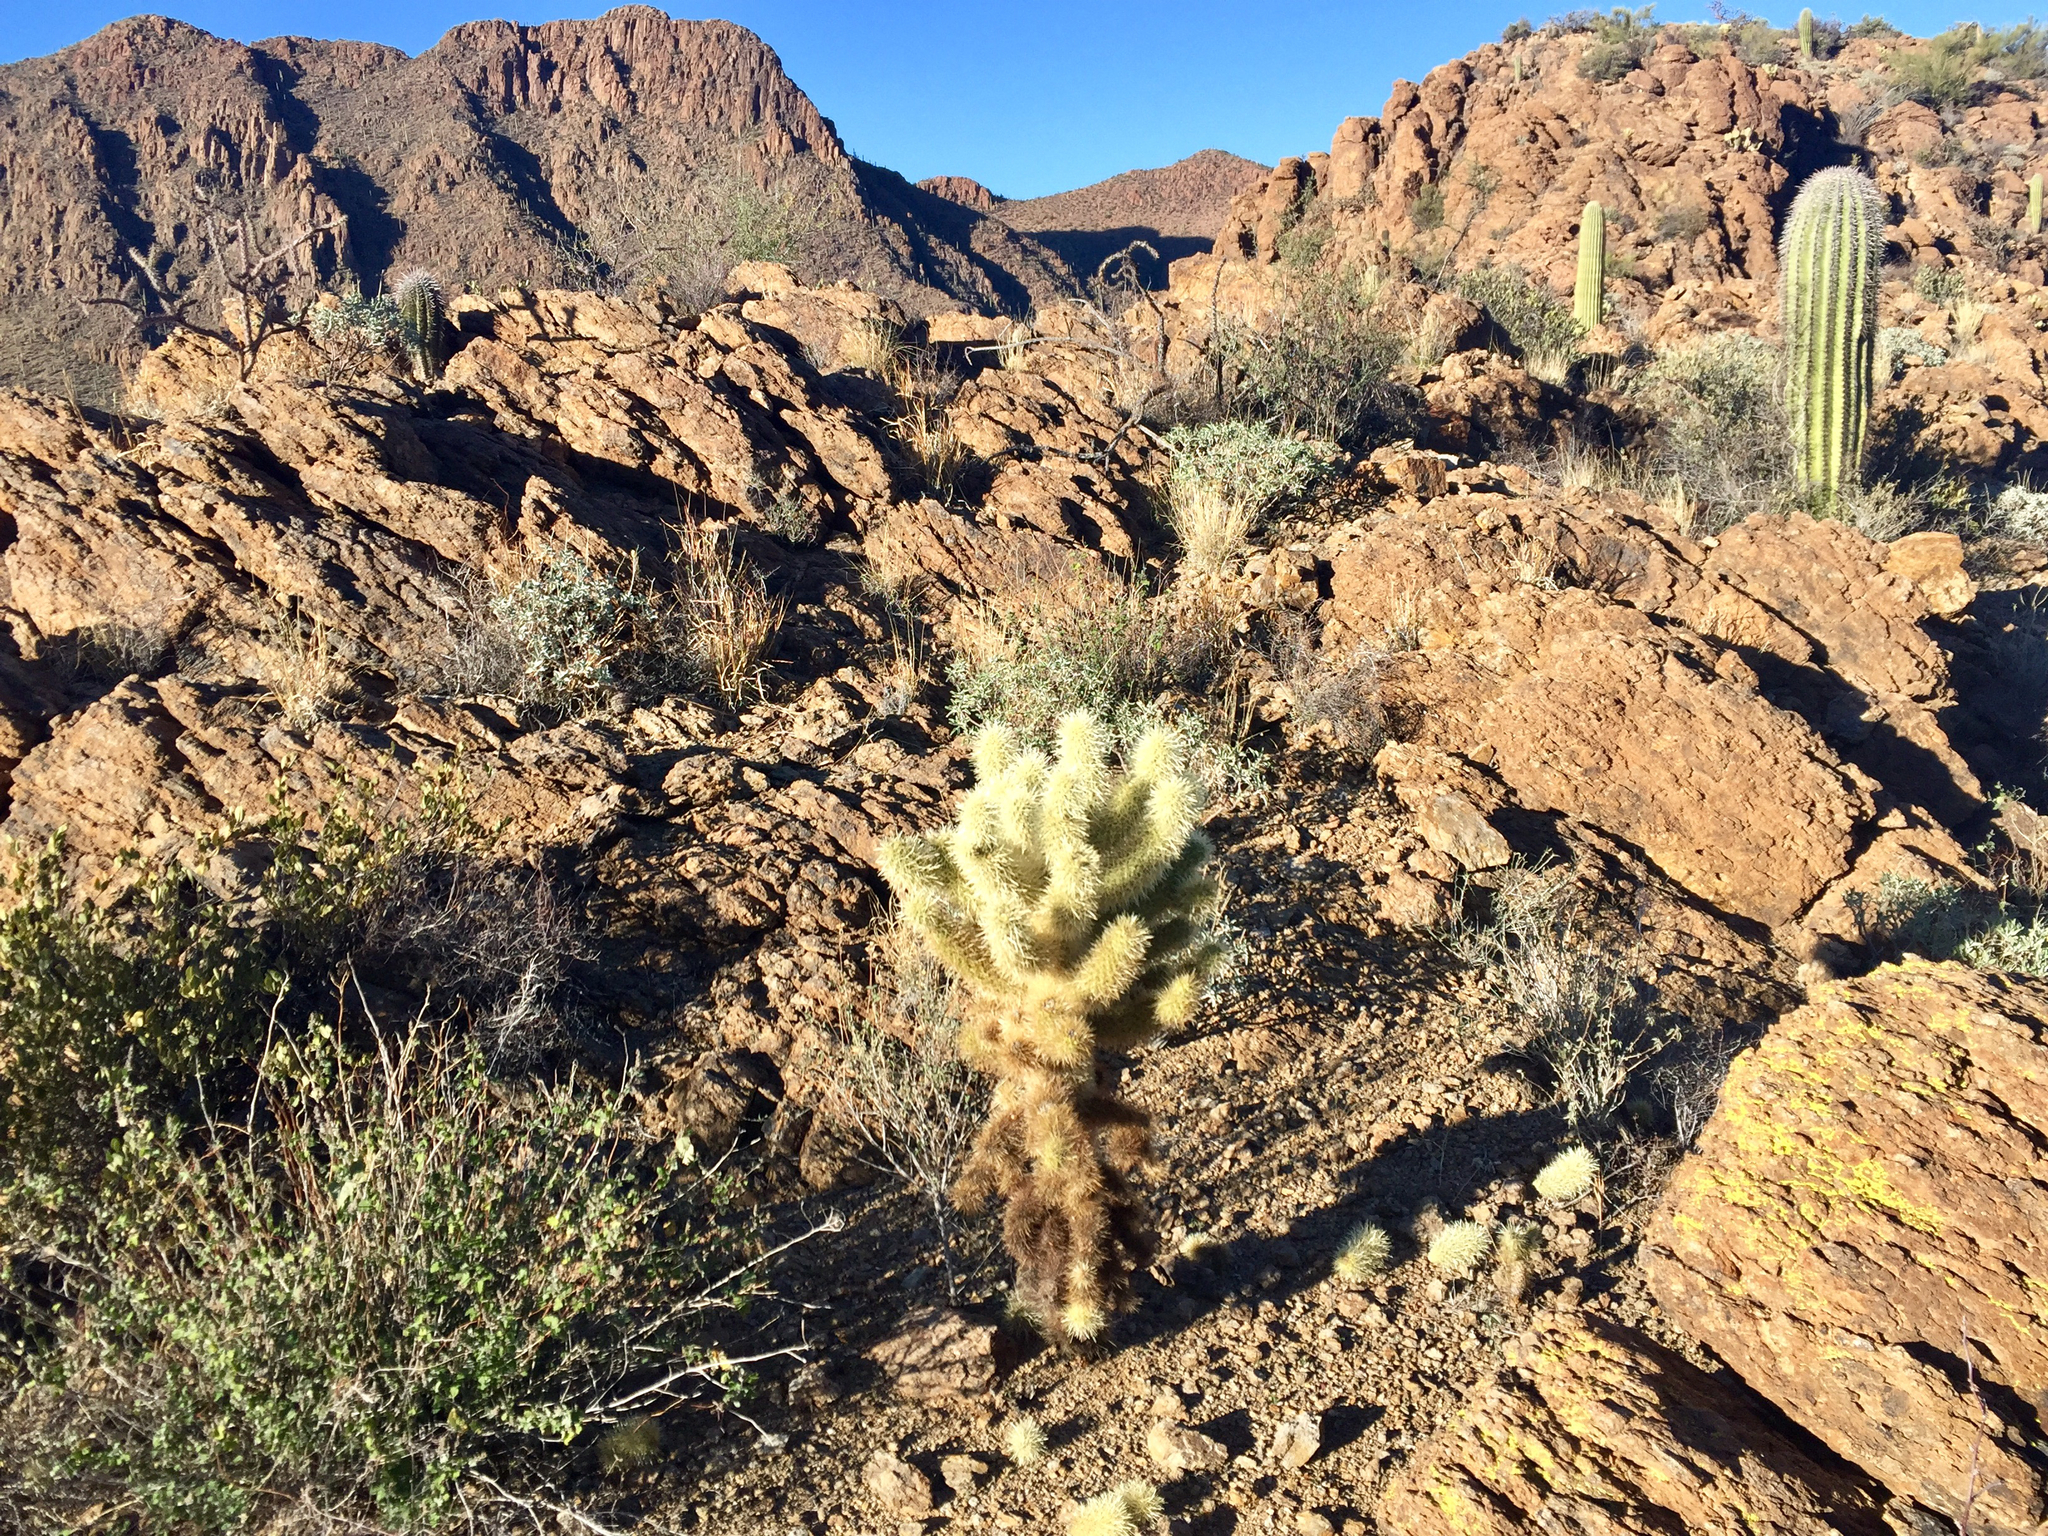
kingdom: Plantae
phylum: Tracheophyta
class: Magnoliopsida
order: Caryophyllales
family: Cactaceae
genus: Cylindropuntia
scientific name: Cylindropuntia fosbergii
